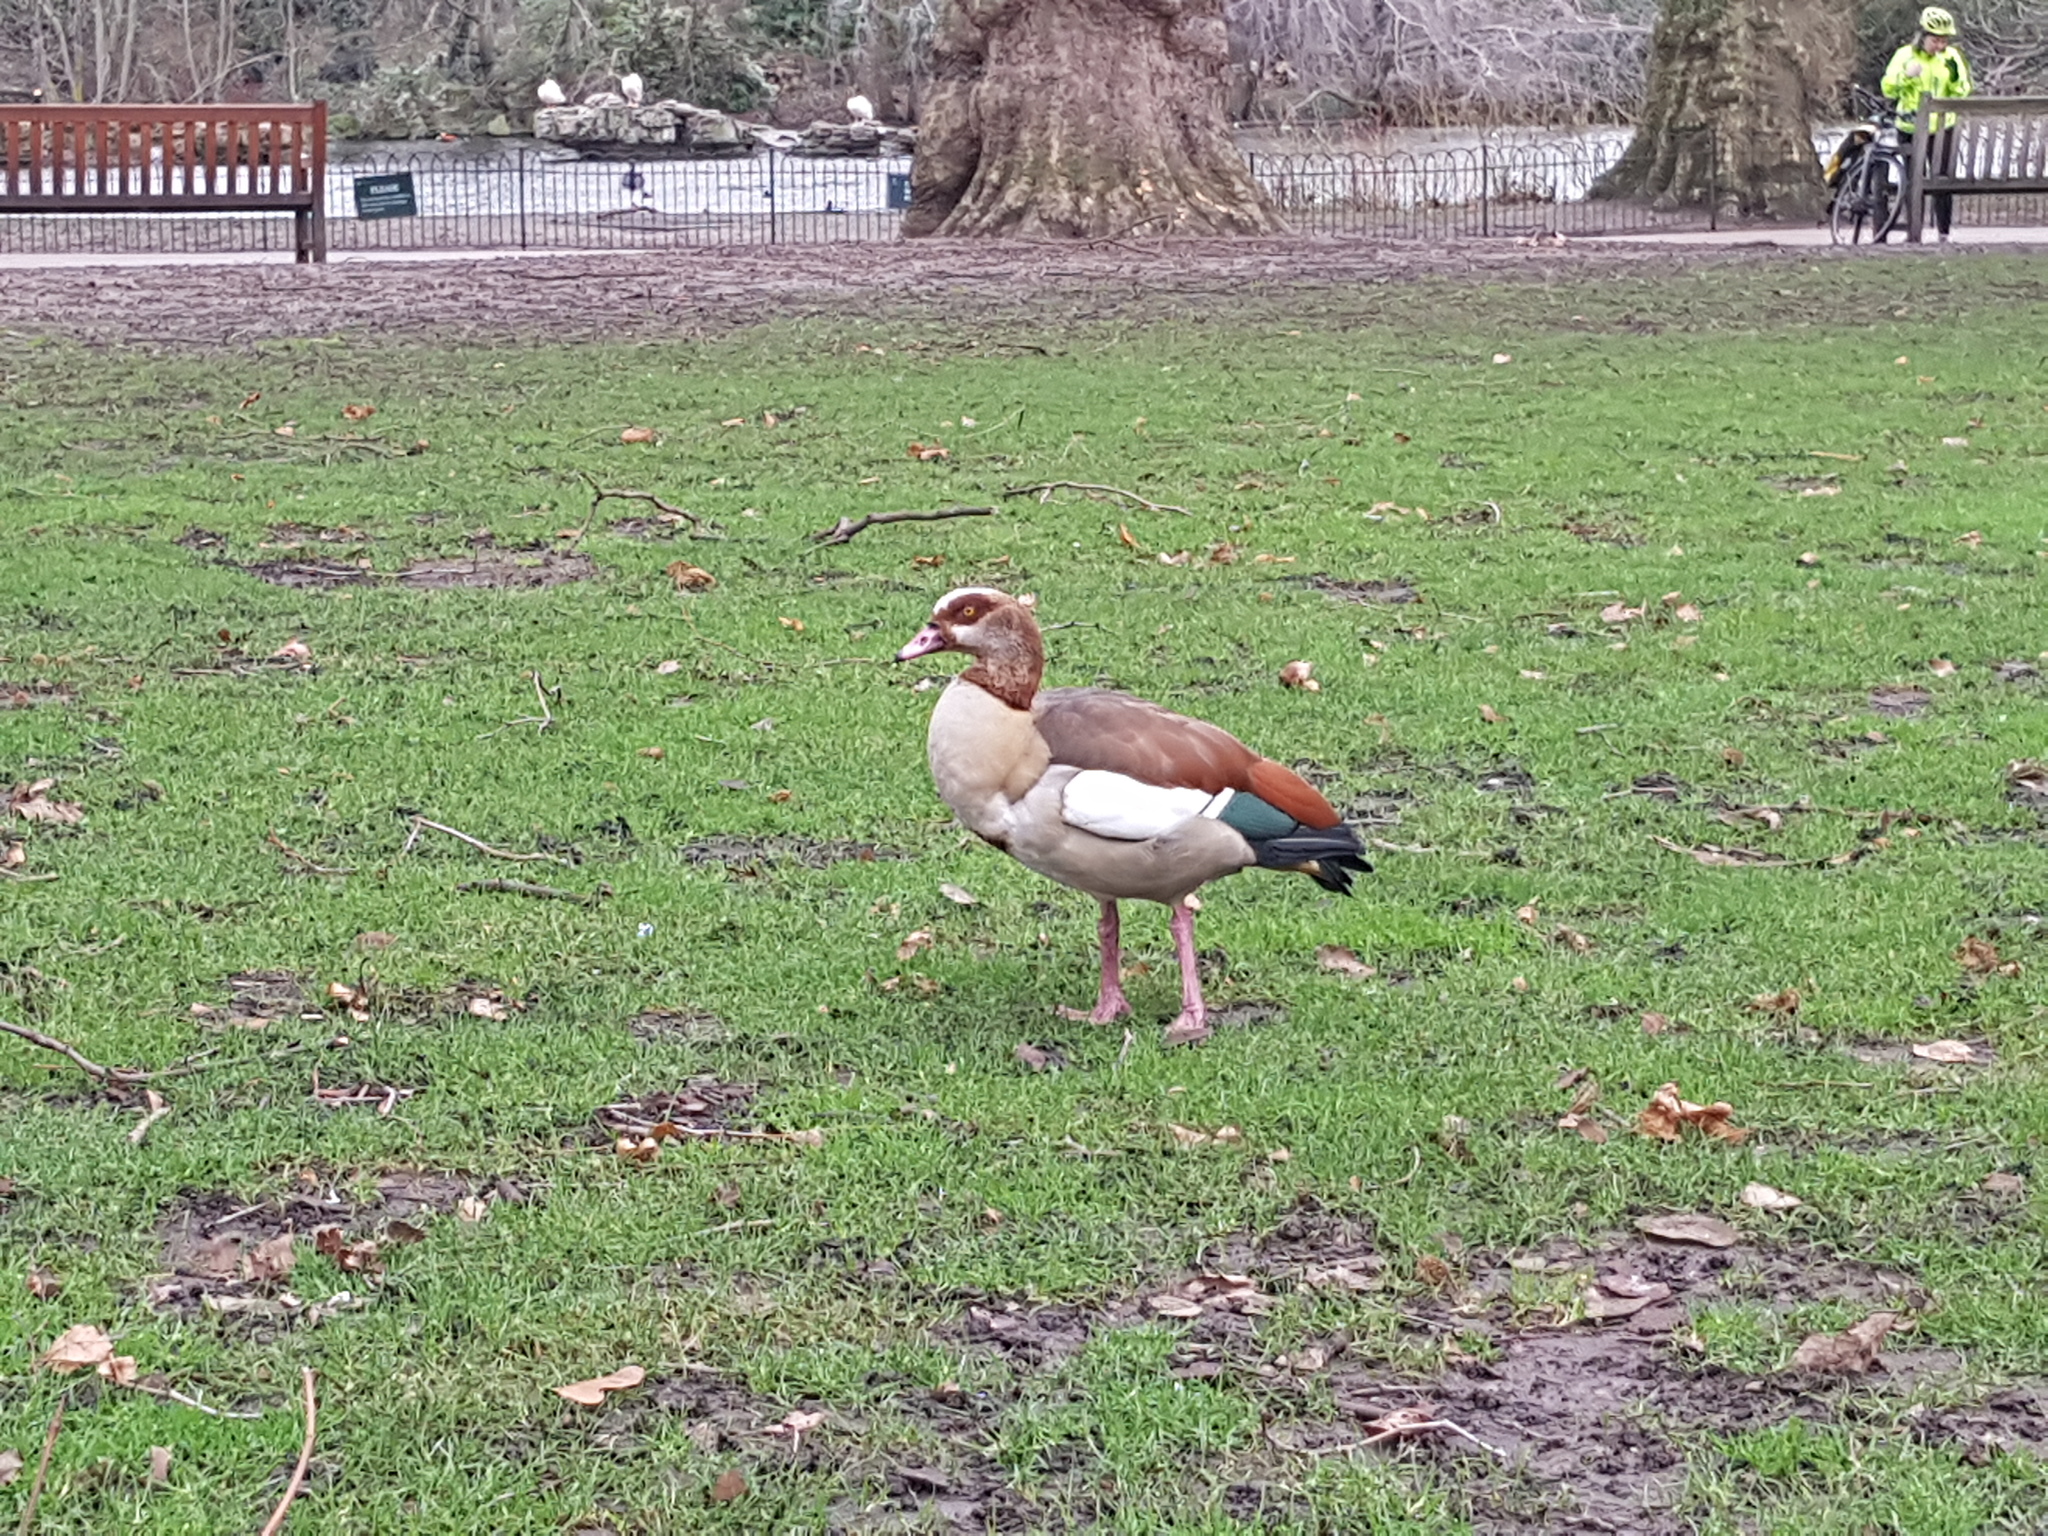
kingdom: Animalia
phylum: Chordata
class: Aves
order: Anseriformes
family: Anatidae
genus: Alopochen
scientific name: Alopochen aegyptiaca
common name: Egyptian goose
